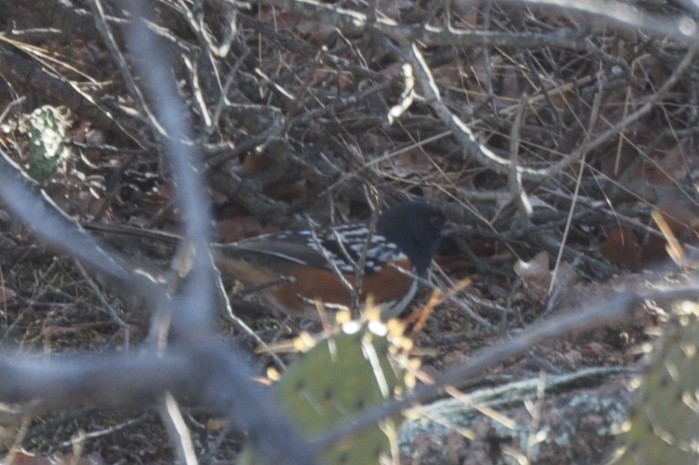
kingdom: Animalia
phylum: Chordata
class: Aves
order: Passeriformes
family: Passerellidae
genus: Pipilo
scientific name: Pipilo maculatus
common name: Spotted towhee
